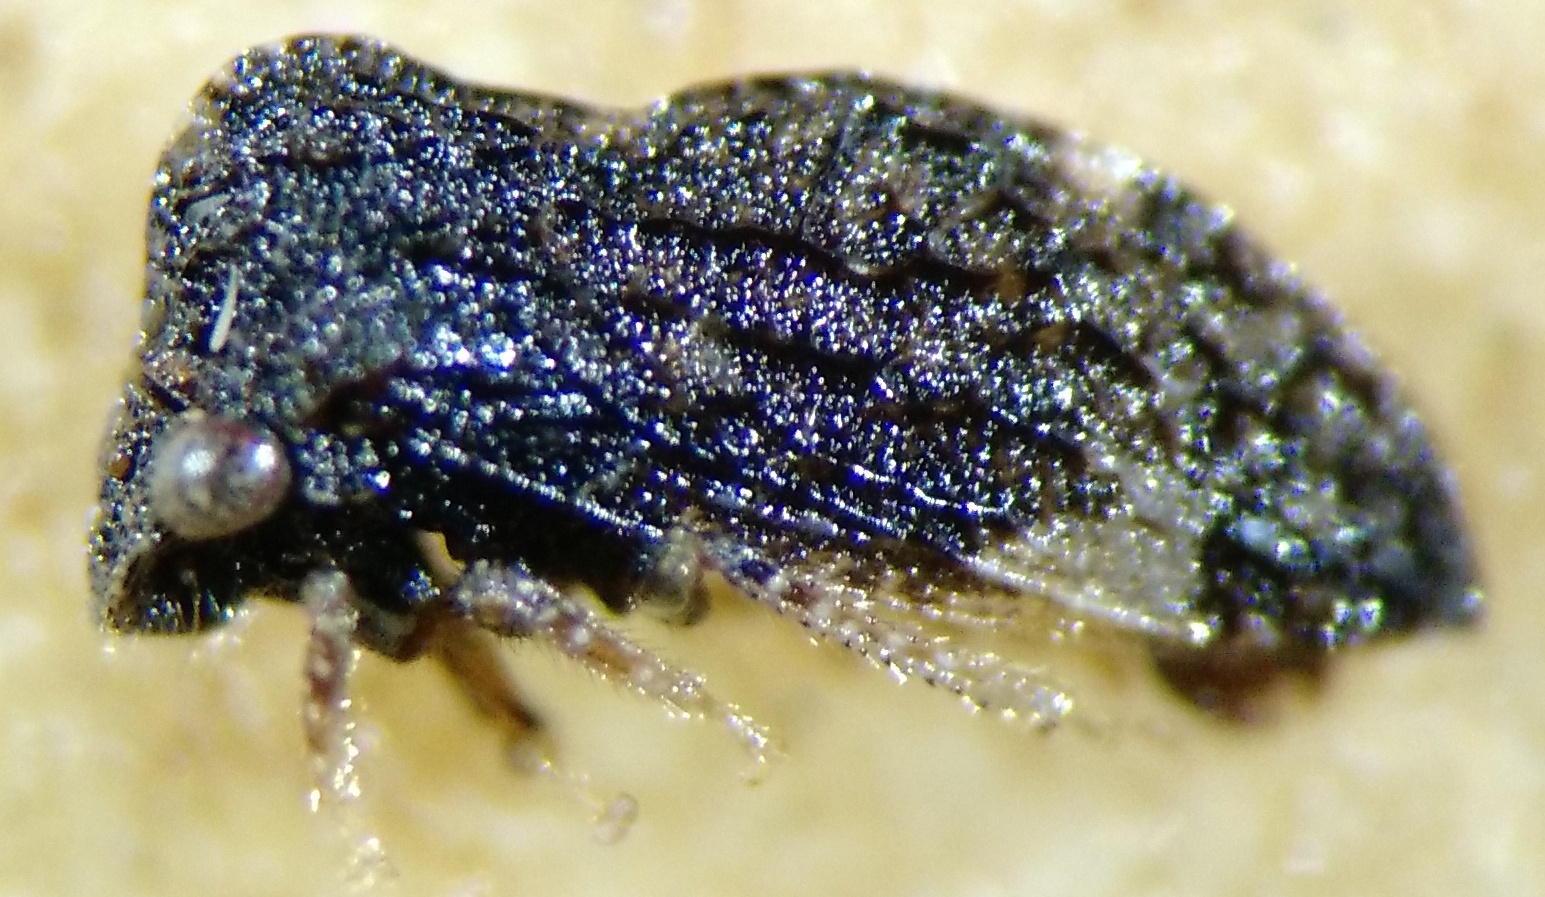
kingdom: Animalia
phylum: Arthropoda
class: Insecta
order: Hemiptera
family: Membracidae
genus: Publilia
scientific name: Publilia reticulata
